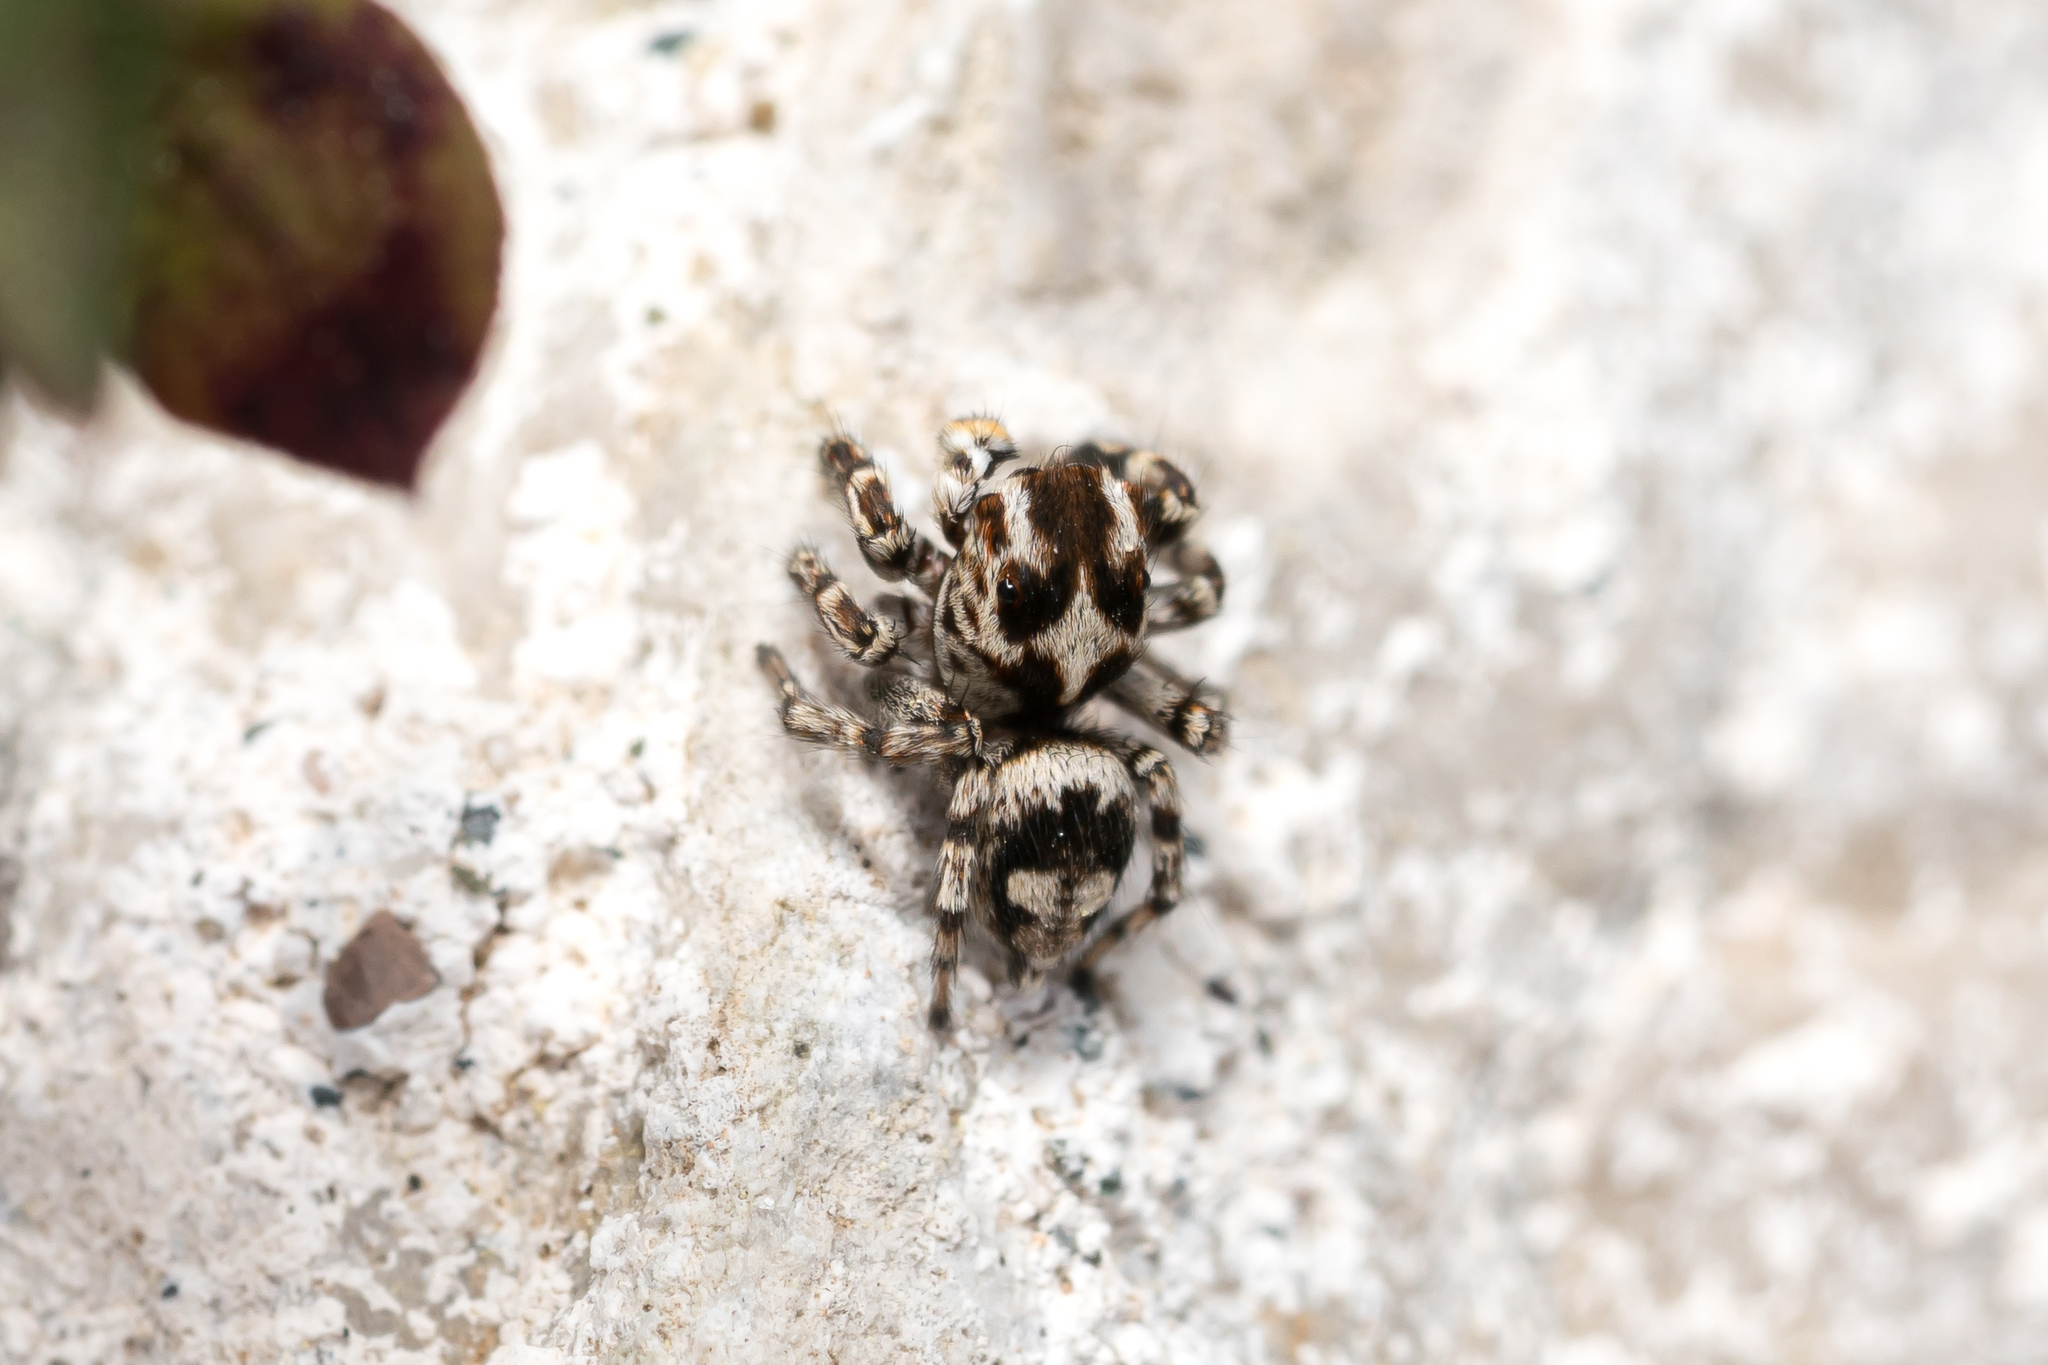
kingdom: Animalia
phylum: Arthropoda
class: Arachnida
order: Araneae
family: Salticidae
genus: Habrocestum
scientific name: Habrocestum egaeum
